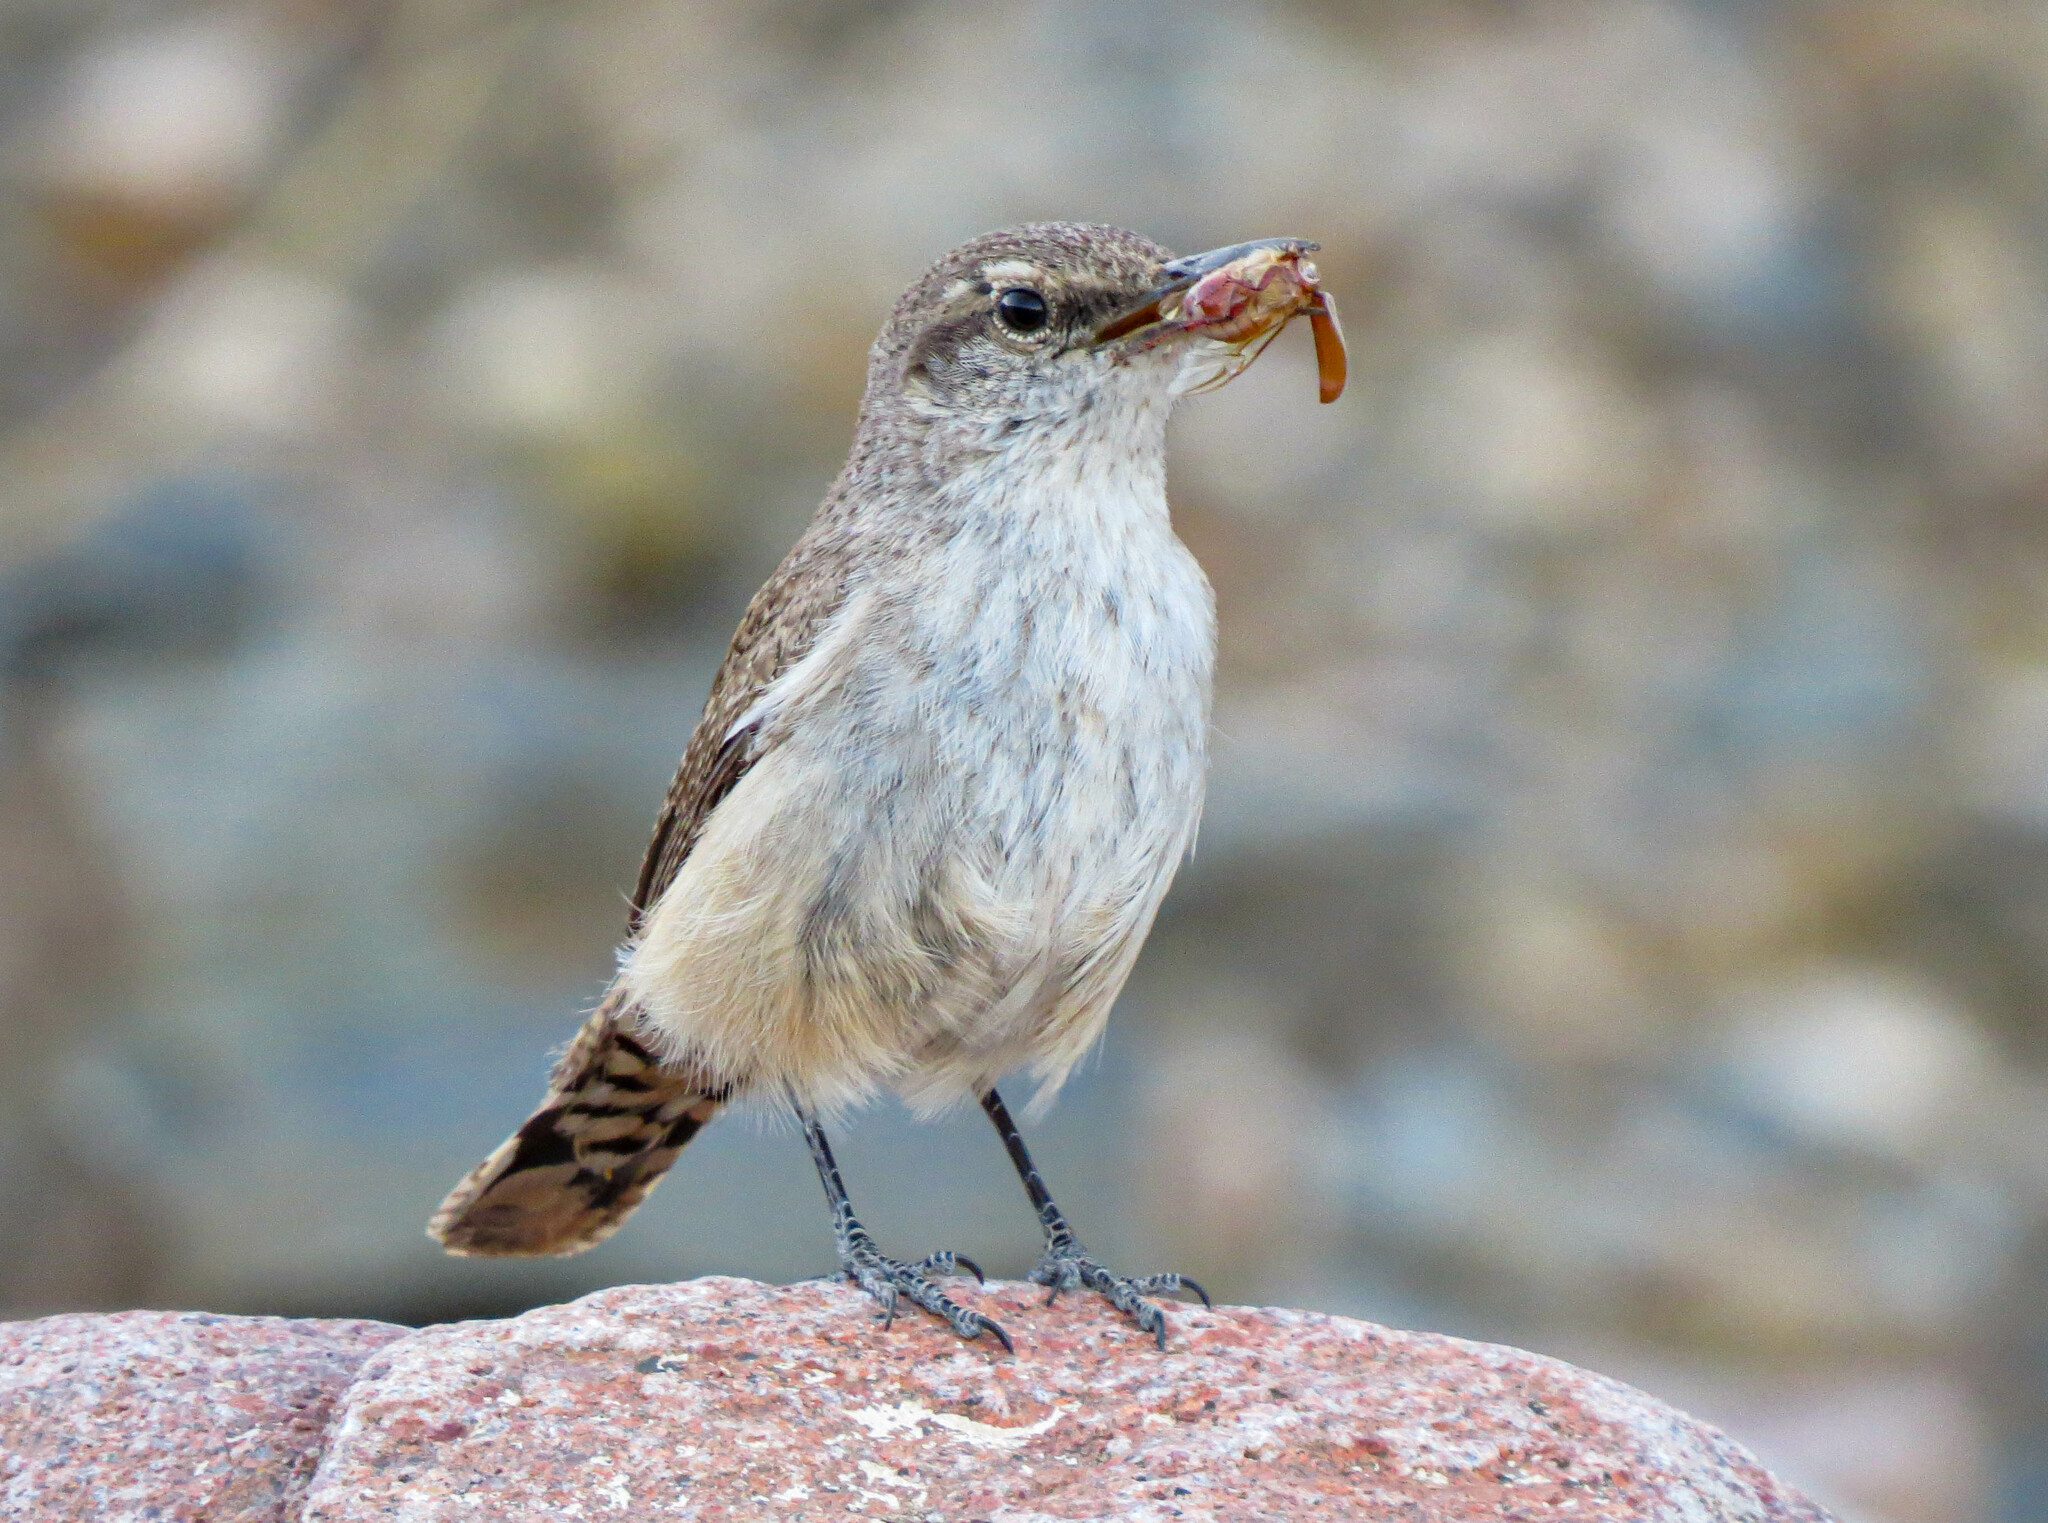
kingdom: Animalia
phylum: Chordata
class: Aves
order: Passeriformes
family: Troglodytidae
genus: Salpinctes
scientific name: Salpinctes obsoletus
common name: Rock wren
